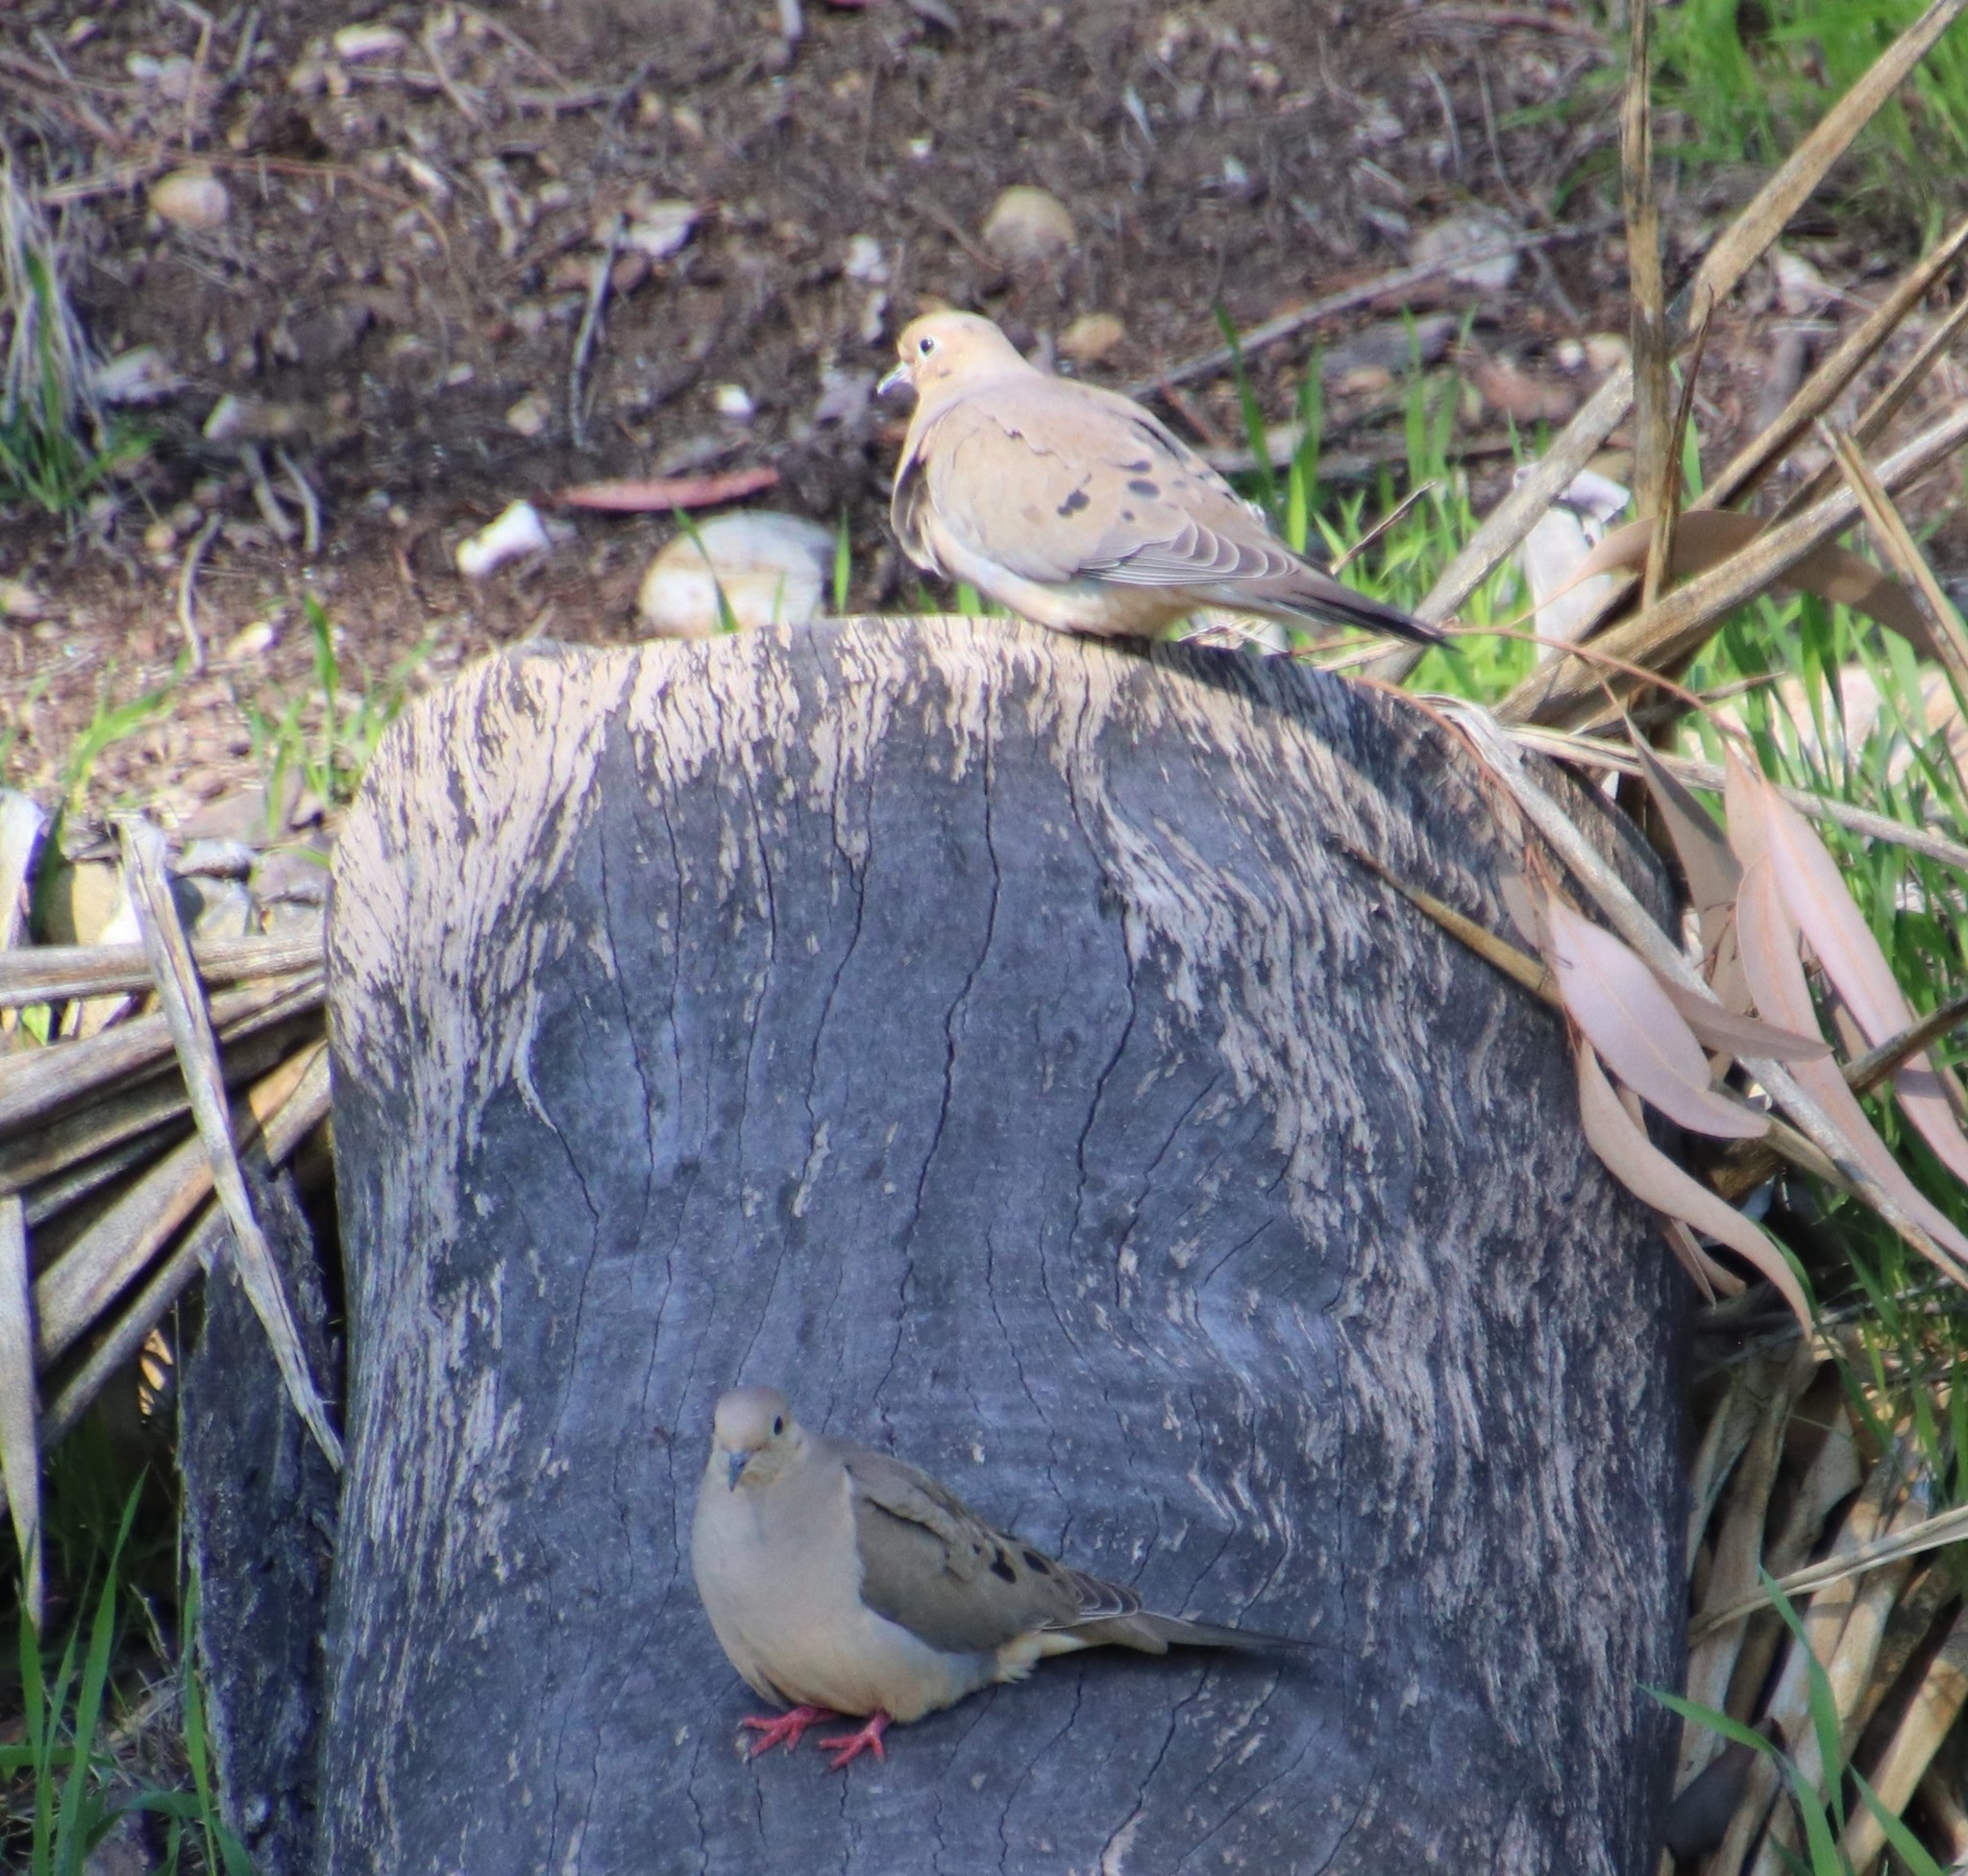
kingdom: Animalia
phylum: Chordata
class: Aves
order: Columbiformes
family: Columbidae
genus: Zenaida
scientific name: Zenaida macroura
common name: Mourning dove
